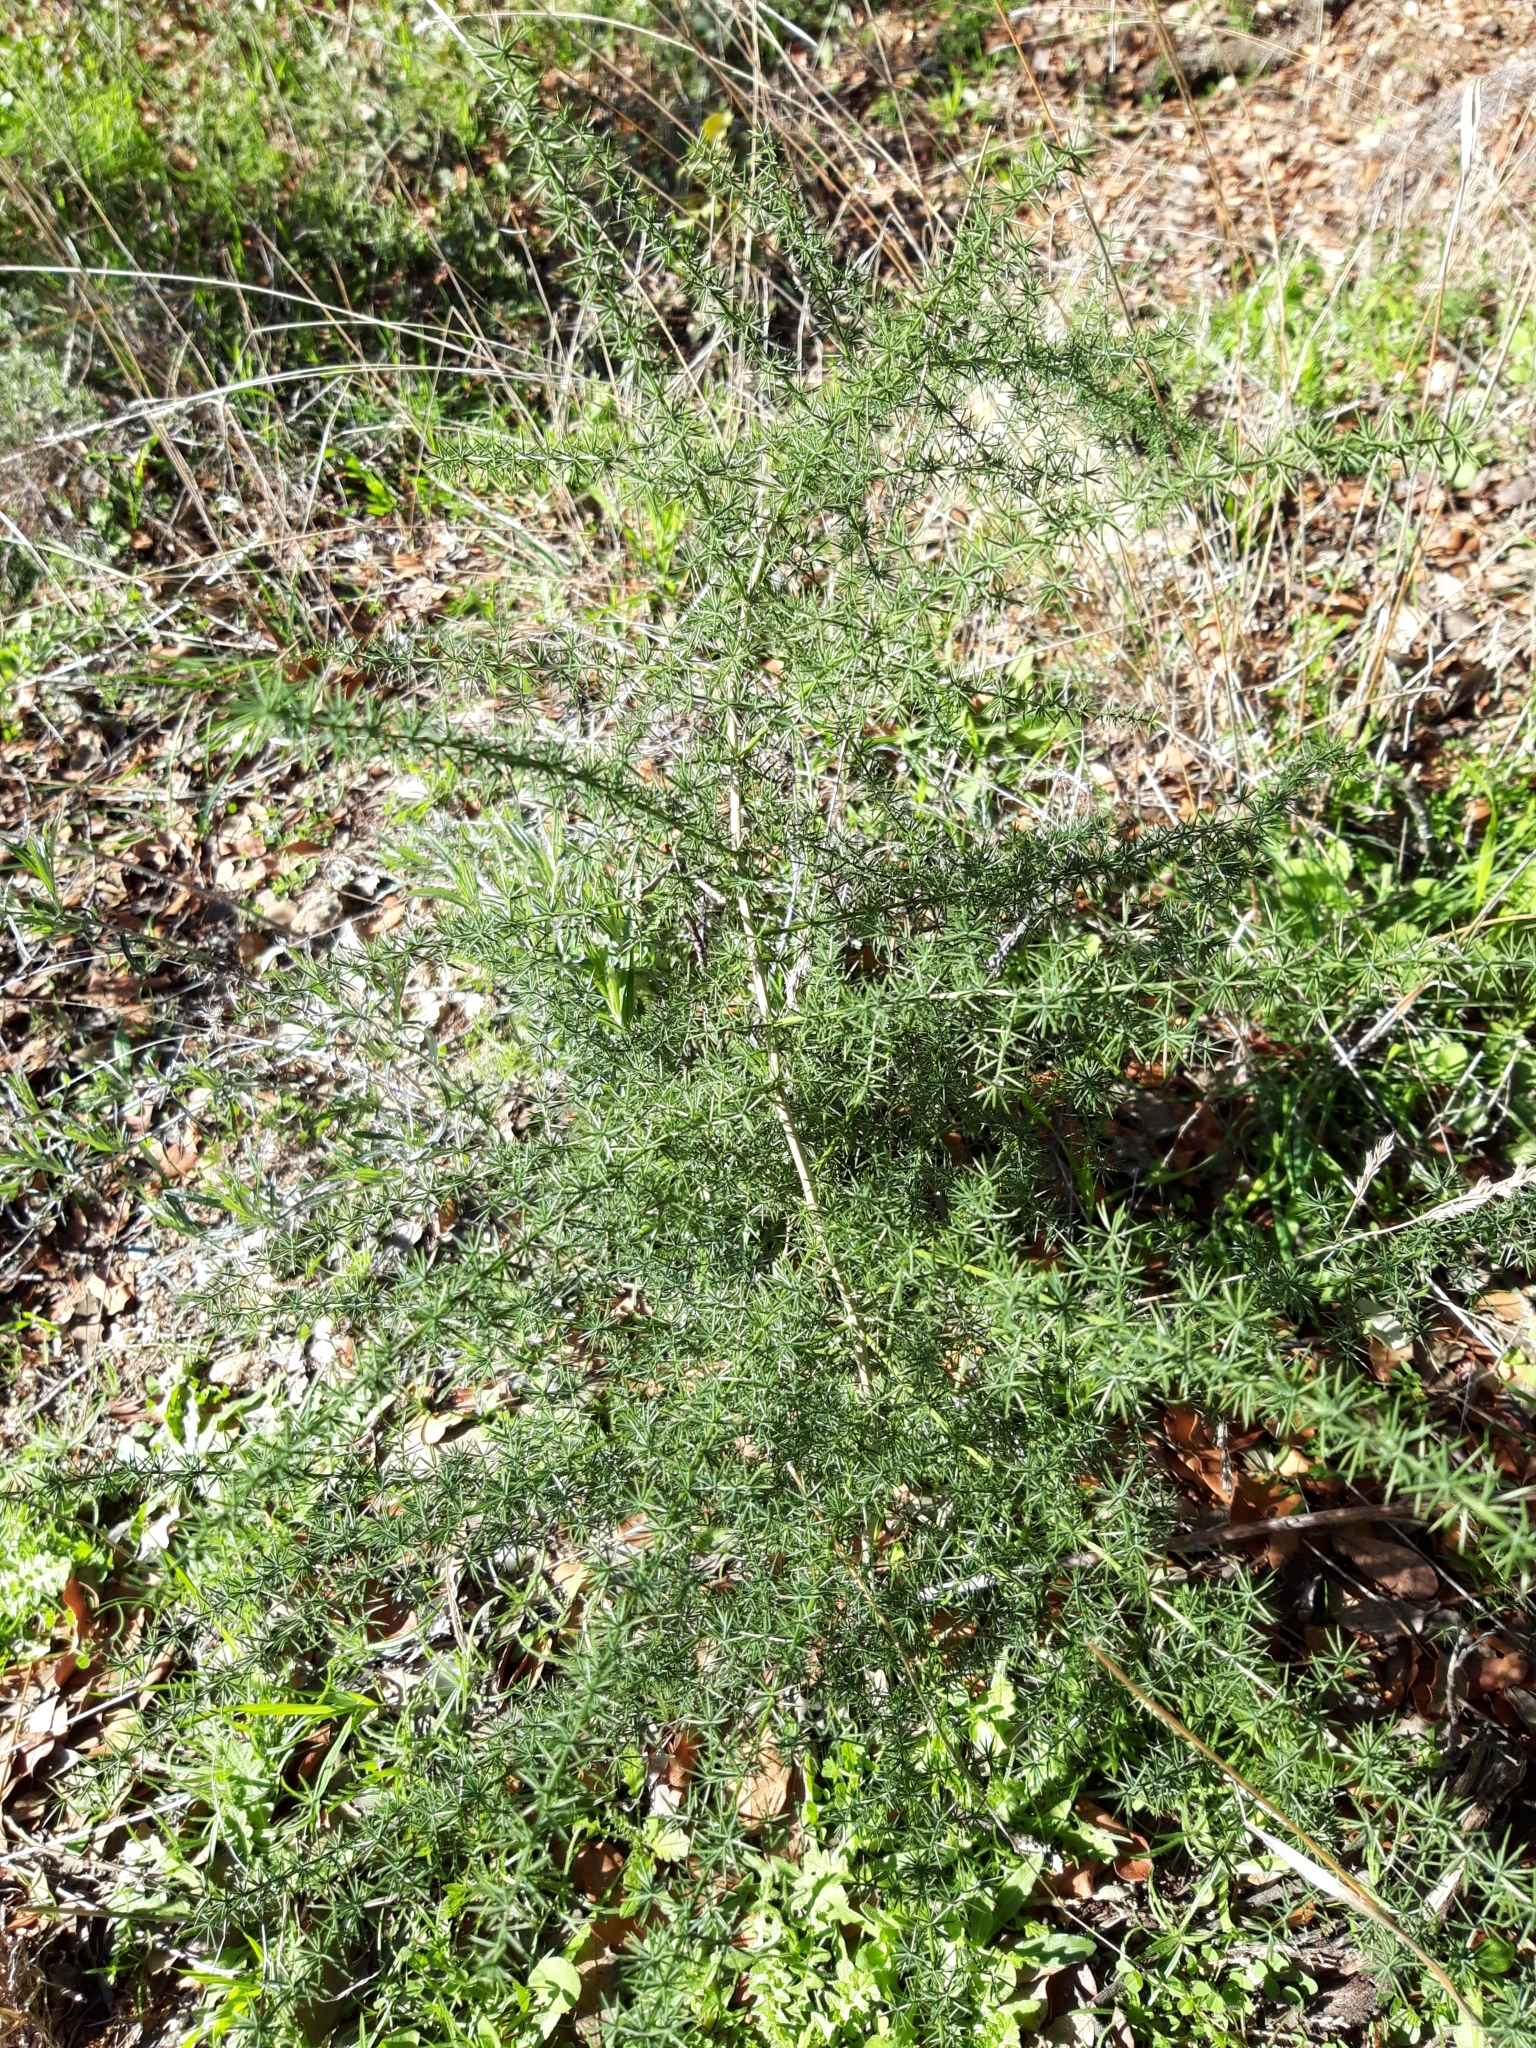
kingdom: Plantae
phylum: Tracheophyta
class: Liliopsida
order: Asparagales
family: Asparagaceae
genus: Asparagus
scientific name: Asparagus acutifolius
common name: Wild asparagus
